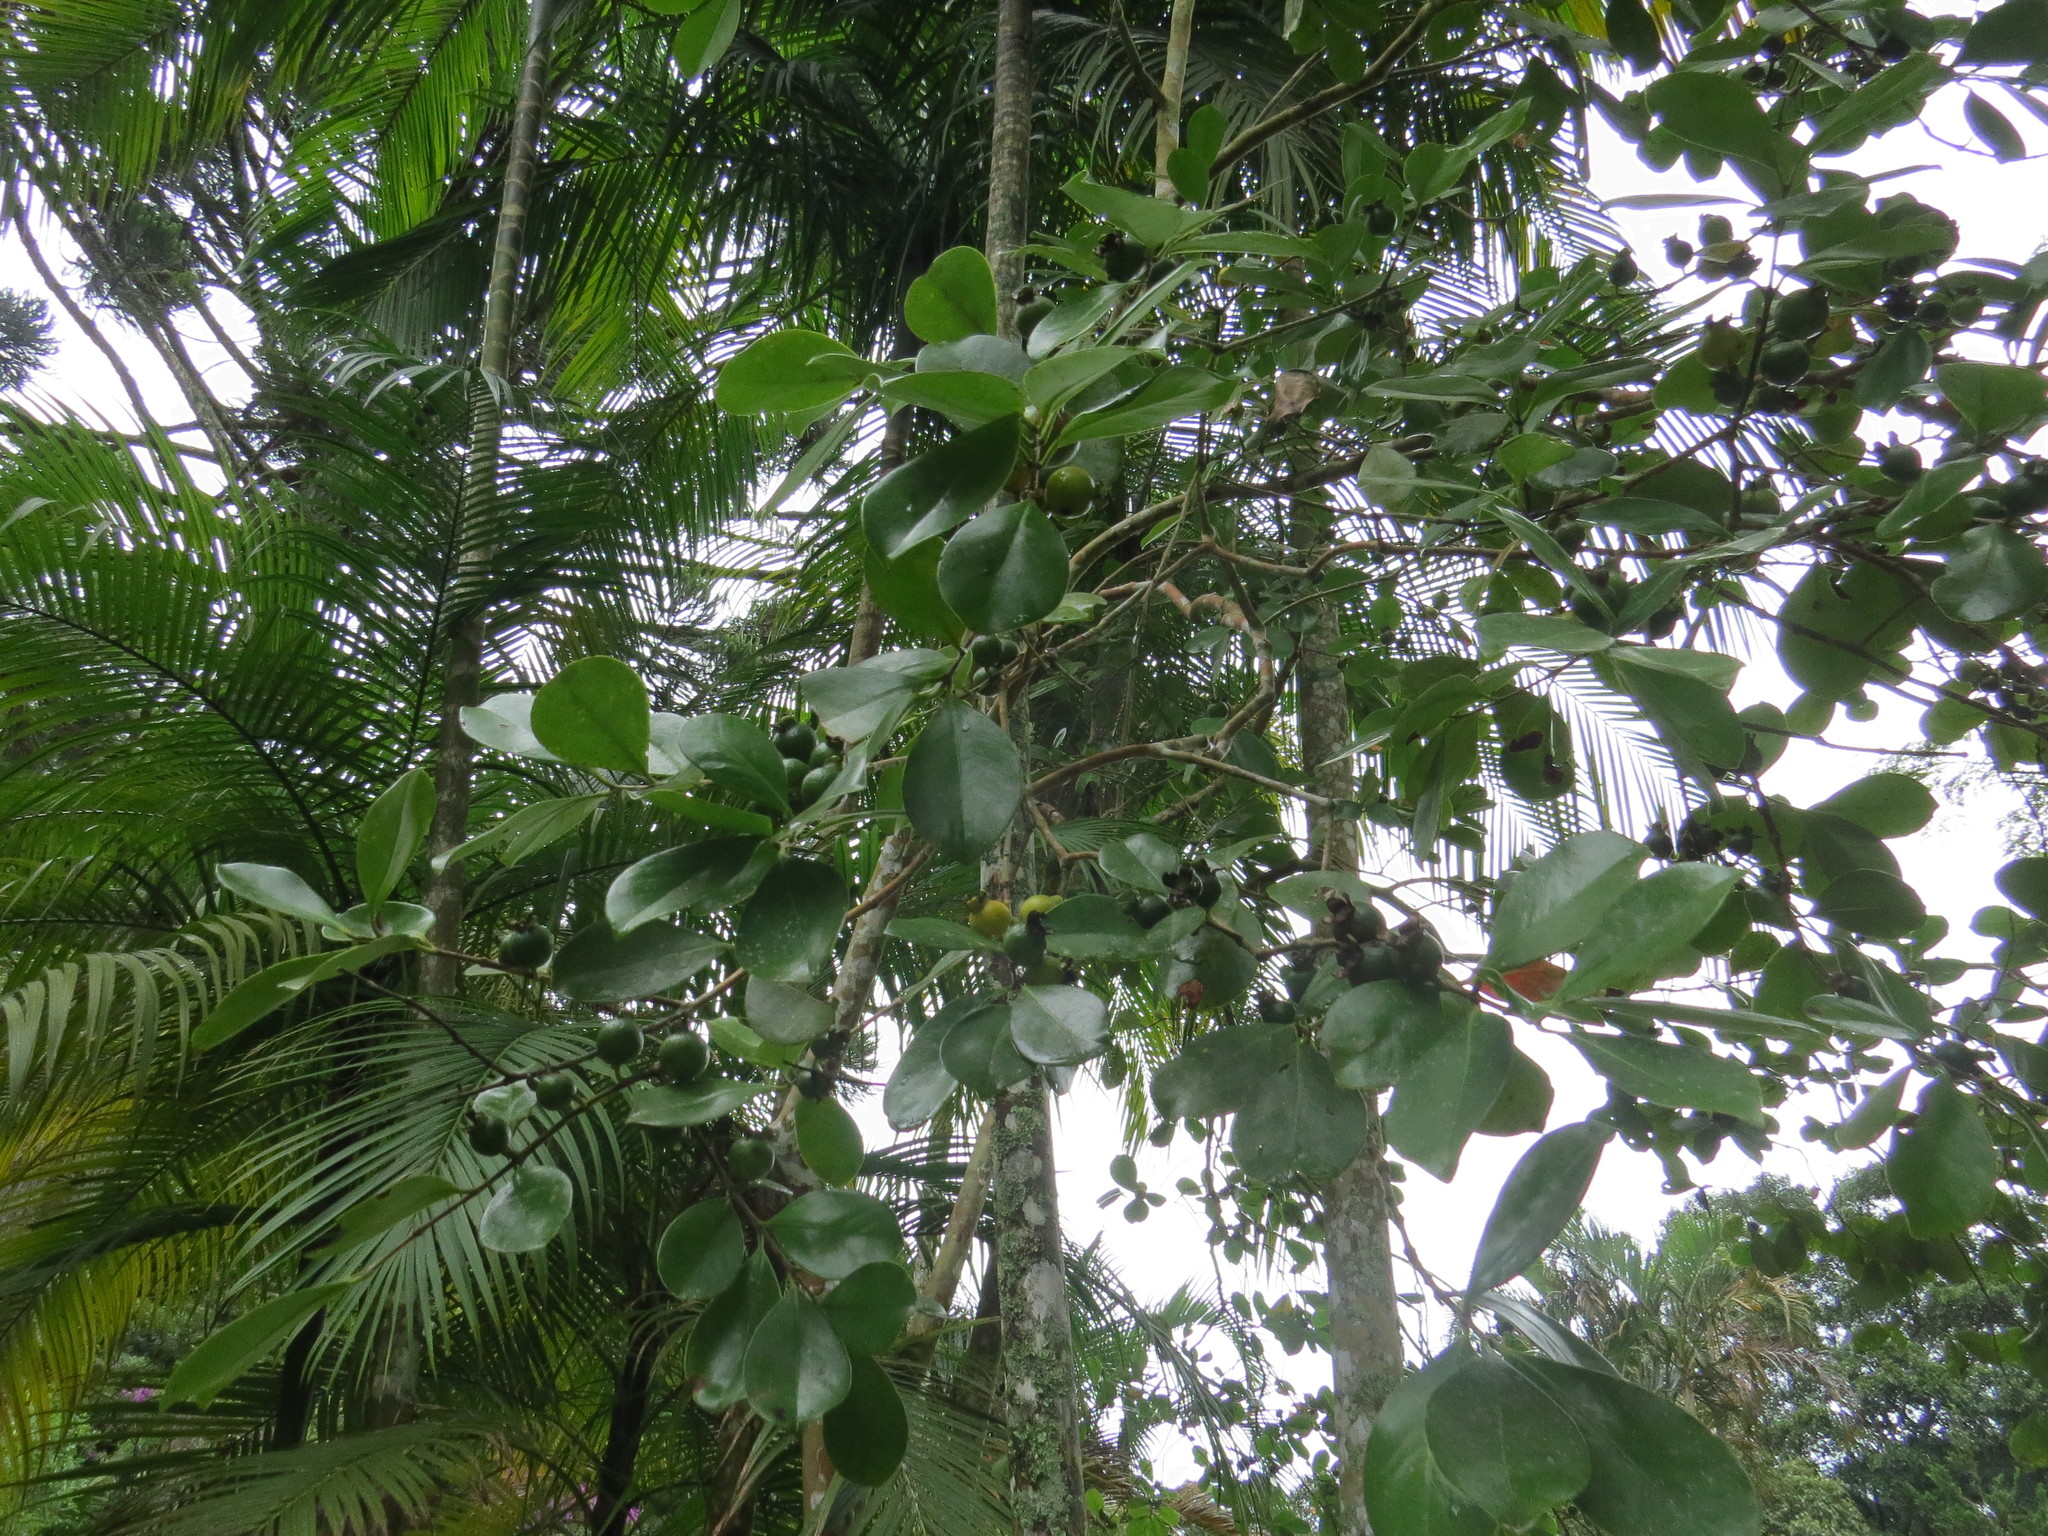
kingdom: Plantae
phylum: Tracheophyta
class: Magnoliopsida
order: Myrtales
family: Myrtaceae
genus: Psidium
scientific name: Psidium cattleianum
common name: Strawberry guava
